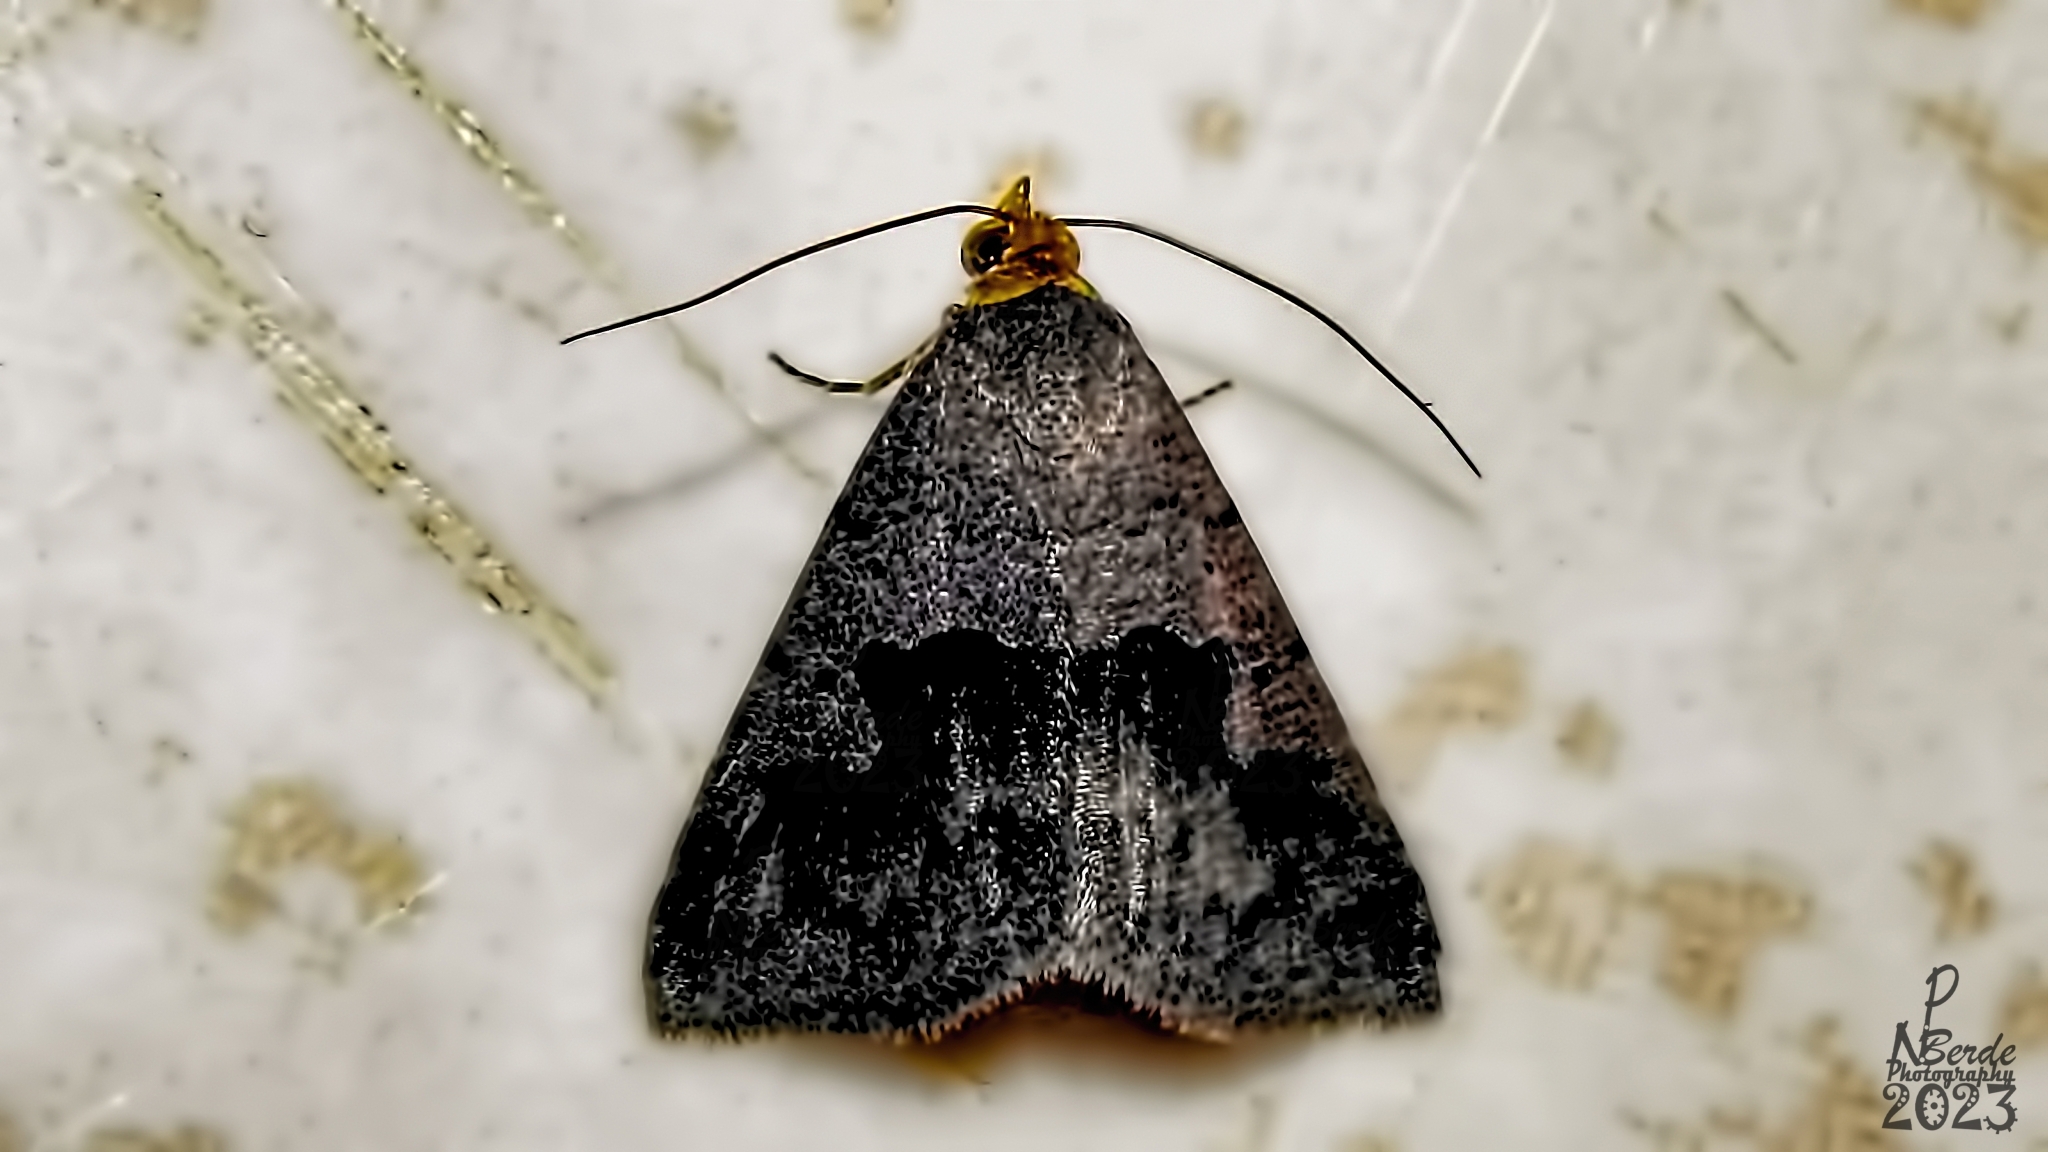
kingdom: Animalia
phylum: Arthropoda
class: Insecta
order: Lepidoptera
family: Erebidae
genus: Baniana
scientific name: Baniana semilugens
